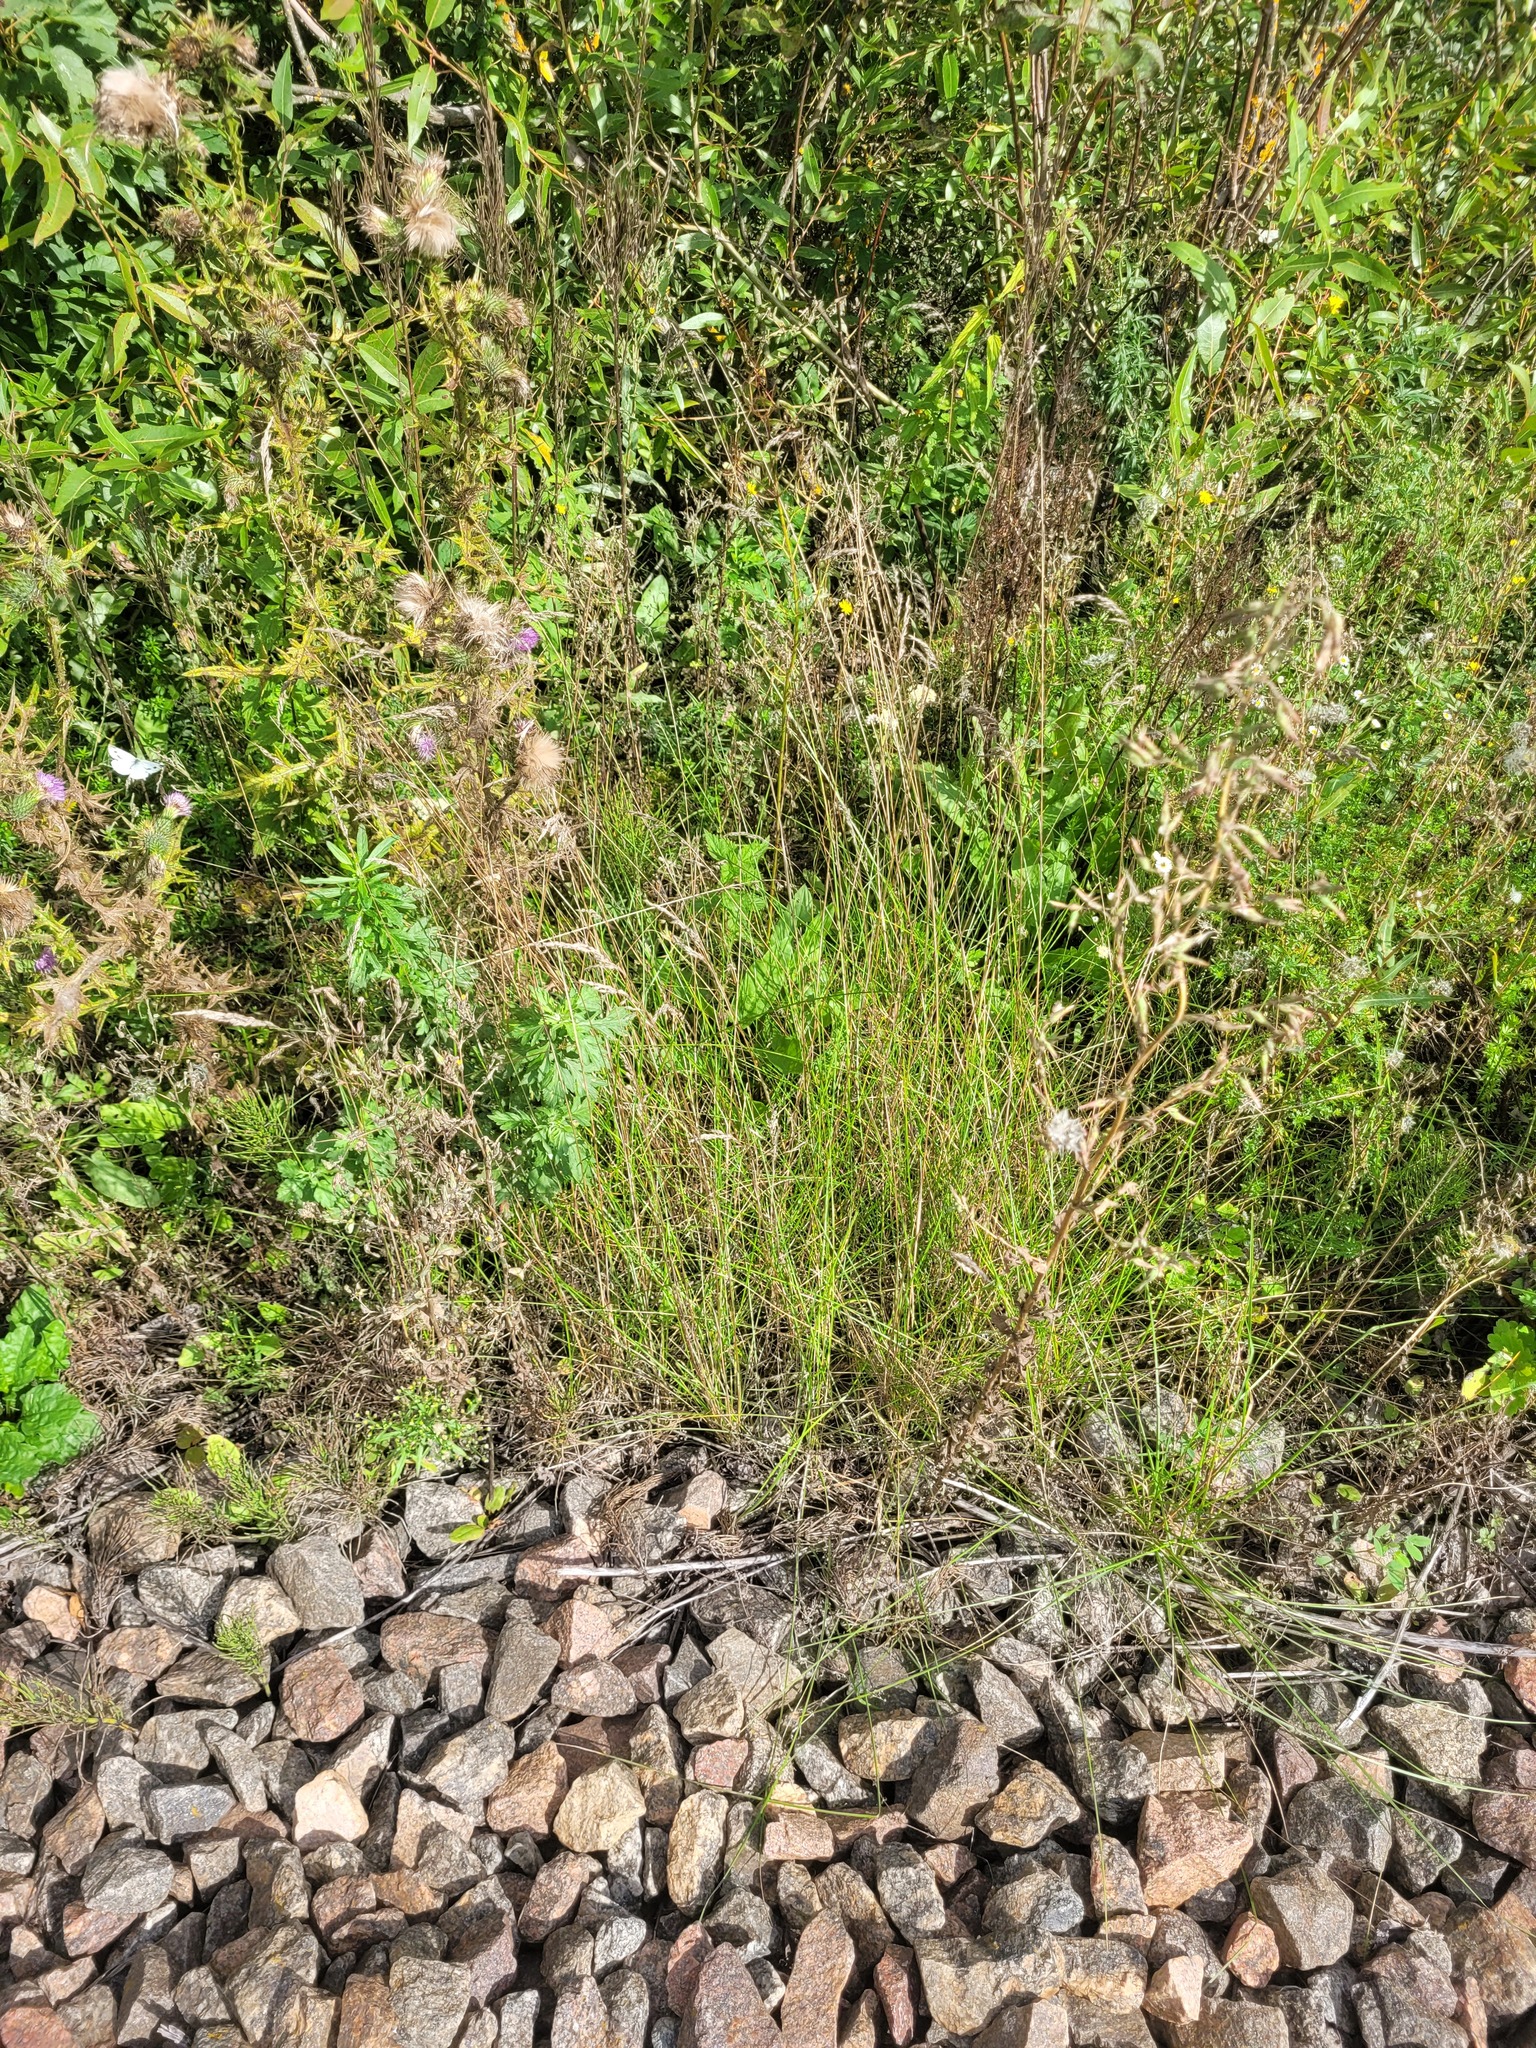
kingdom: Plantae
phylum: Tracheophyta
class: Liliopsida
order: Poales
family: Poaceae
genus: Poa
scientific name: Poa angustifolia
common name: Narrow-leaved meadow-grass
